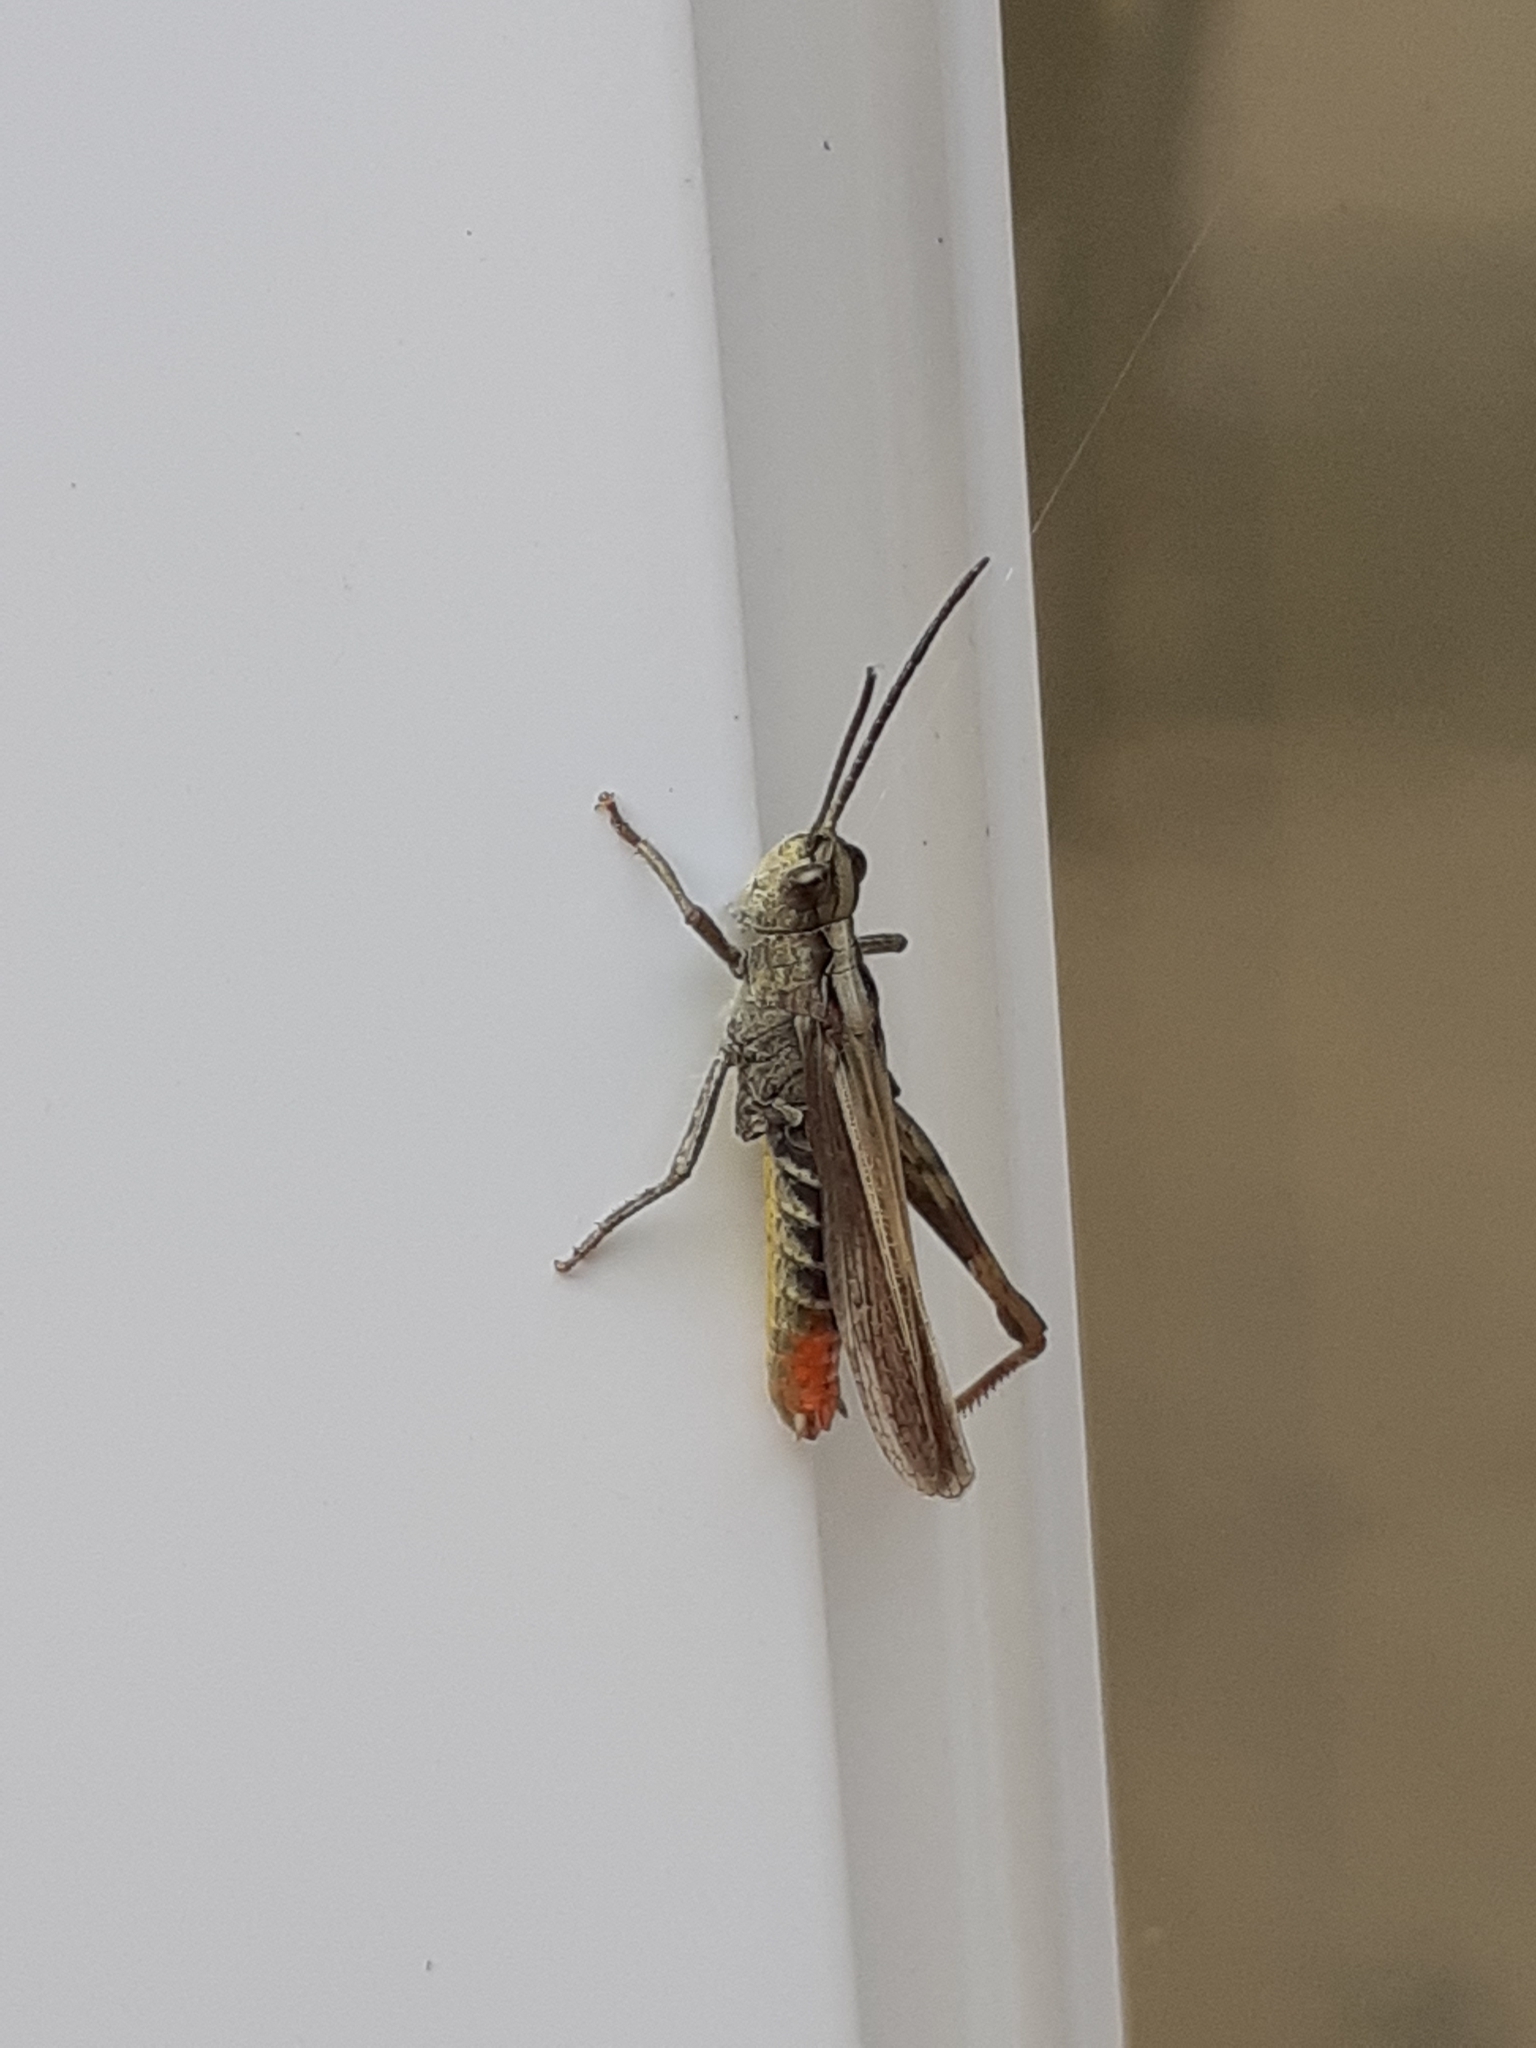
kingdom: Animalia
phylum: Arthropoda
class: Insecta
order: Orthoptera
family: Acrididae
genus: Chorthippus
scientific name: Chorthippus brunneus
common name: Field grasshopper
